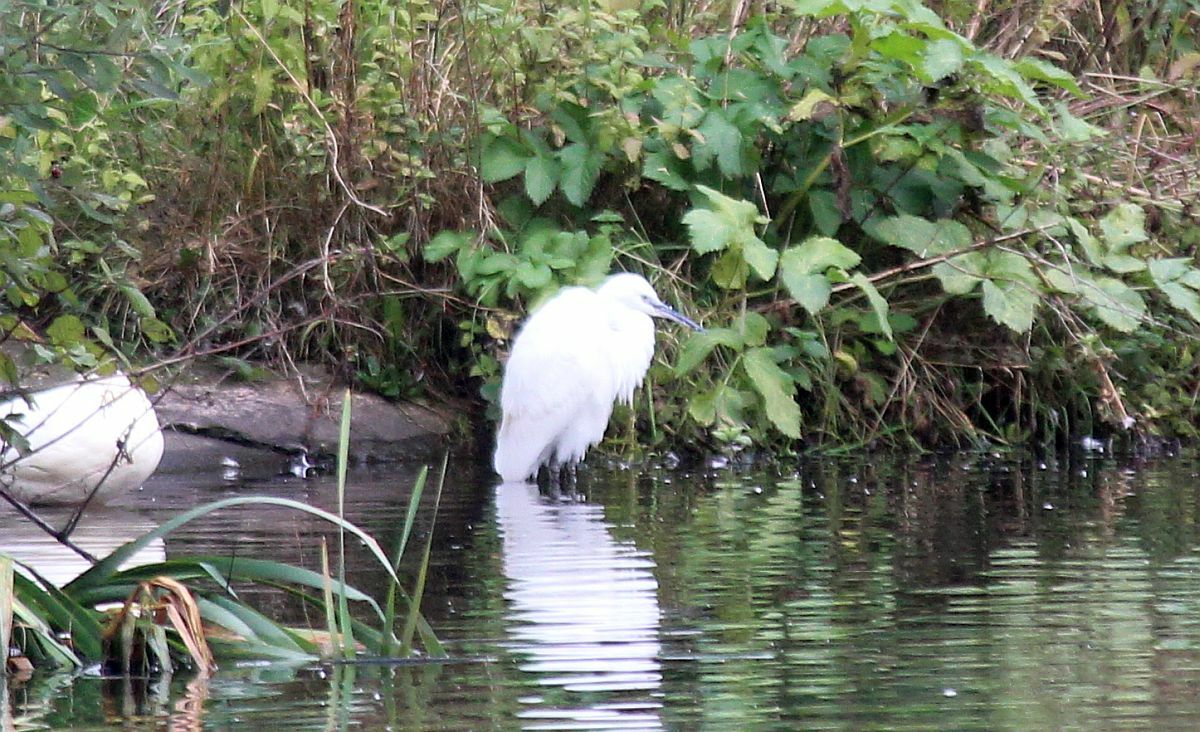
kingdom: Animalia
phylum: Chordata
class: Aves
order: Pelecaniformes
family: Ardeidae
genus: Egretta
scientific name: Egretta garzetta
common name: Little egret
